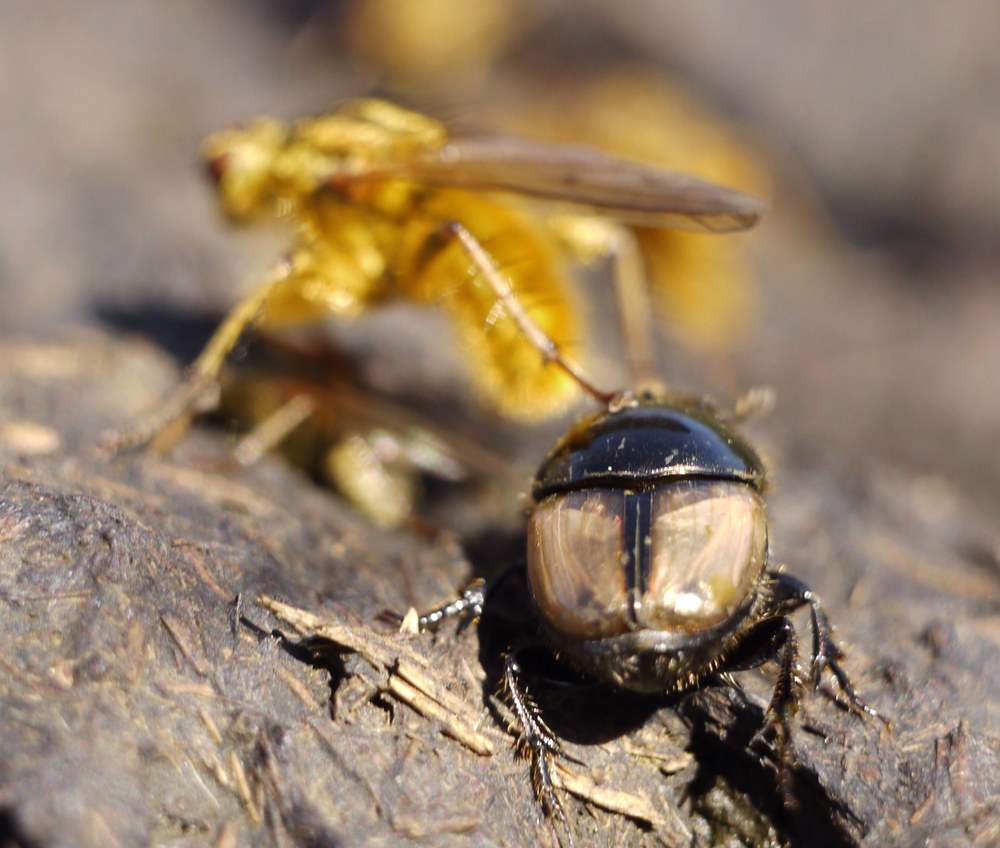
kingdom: Animalia
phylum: Arthropoda
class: Insecta
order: Coleoptera
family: Scarabaeidae
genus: Onthophagus
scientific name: Onthophagus lucidus
